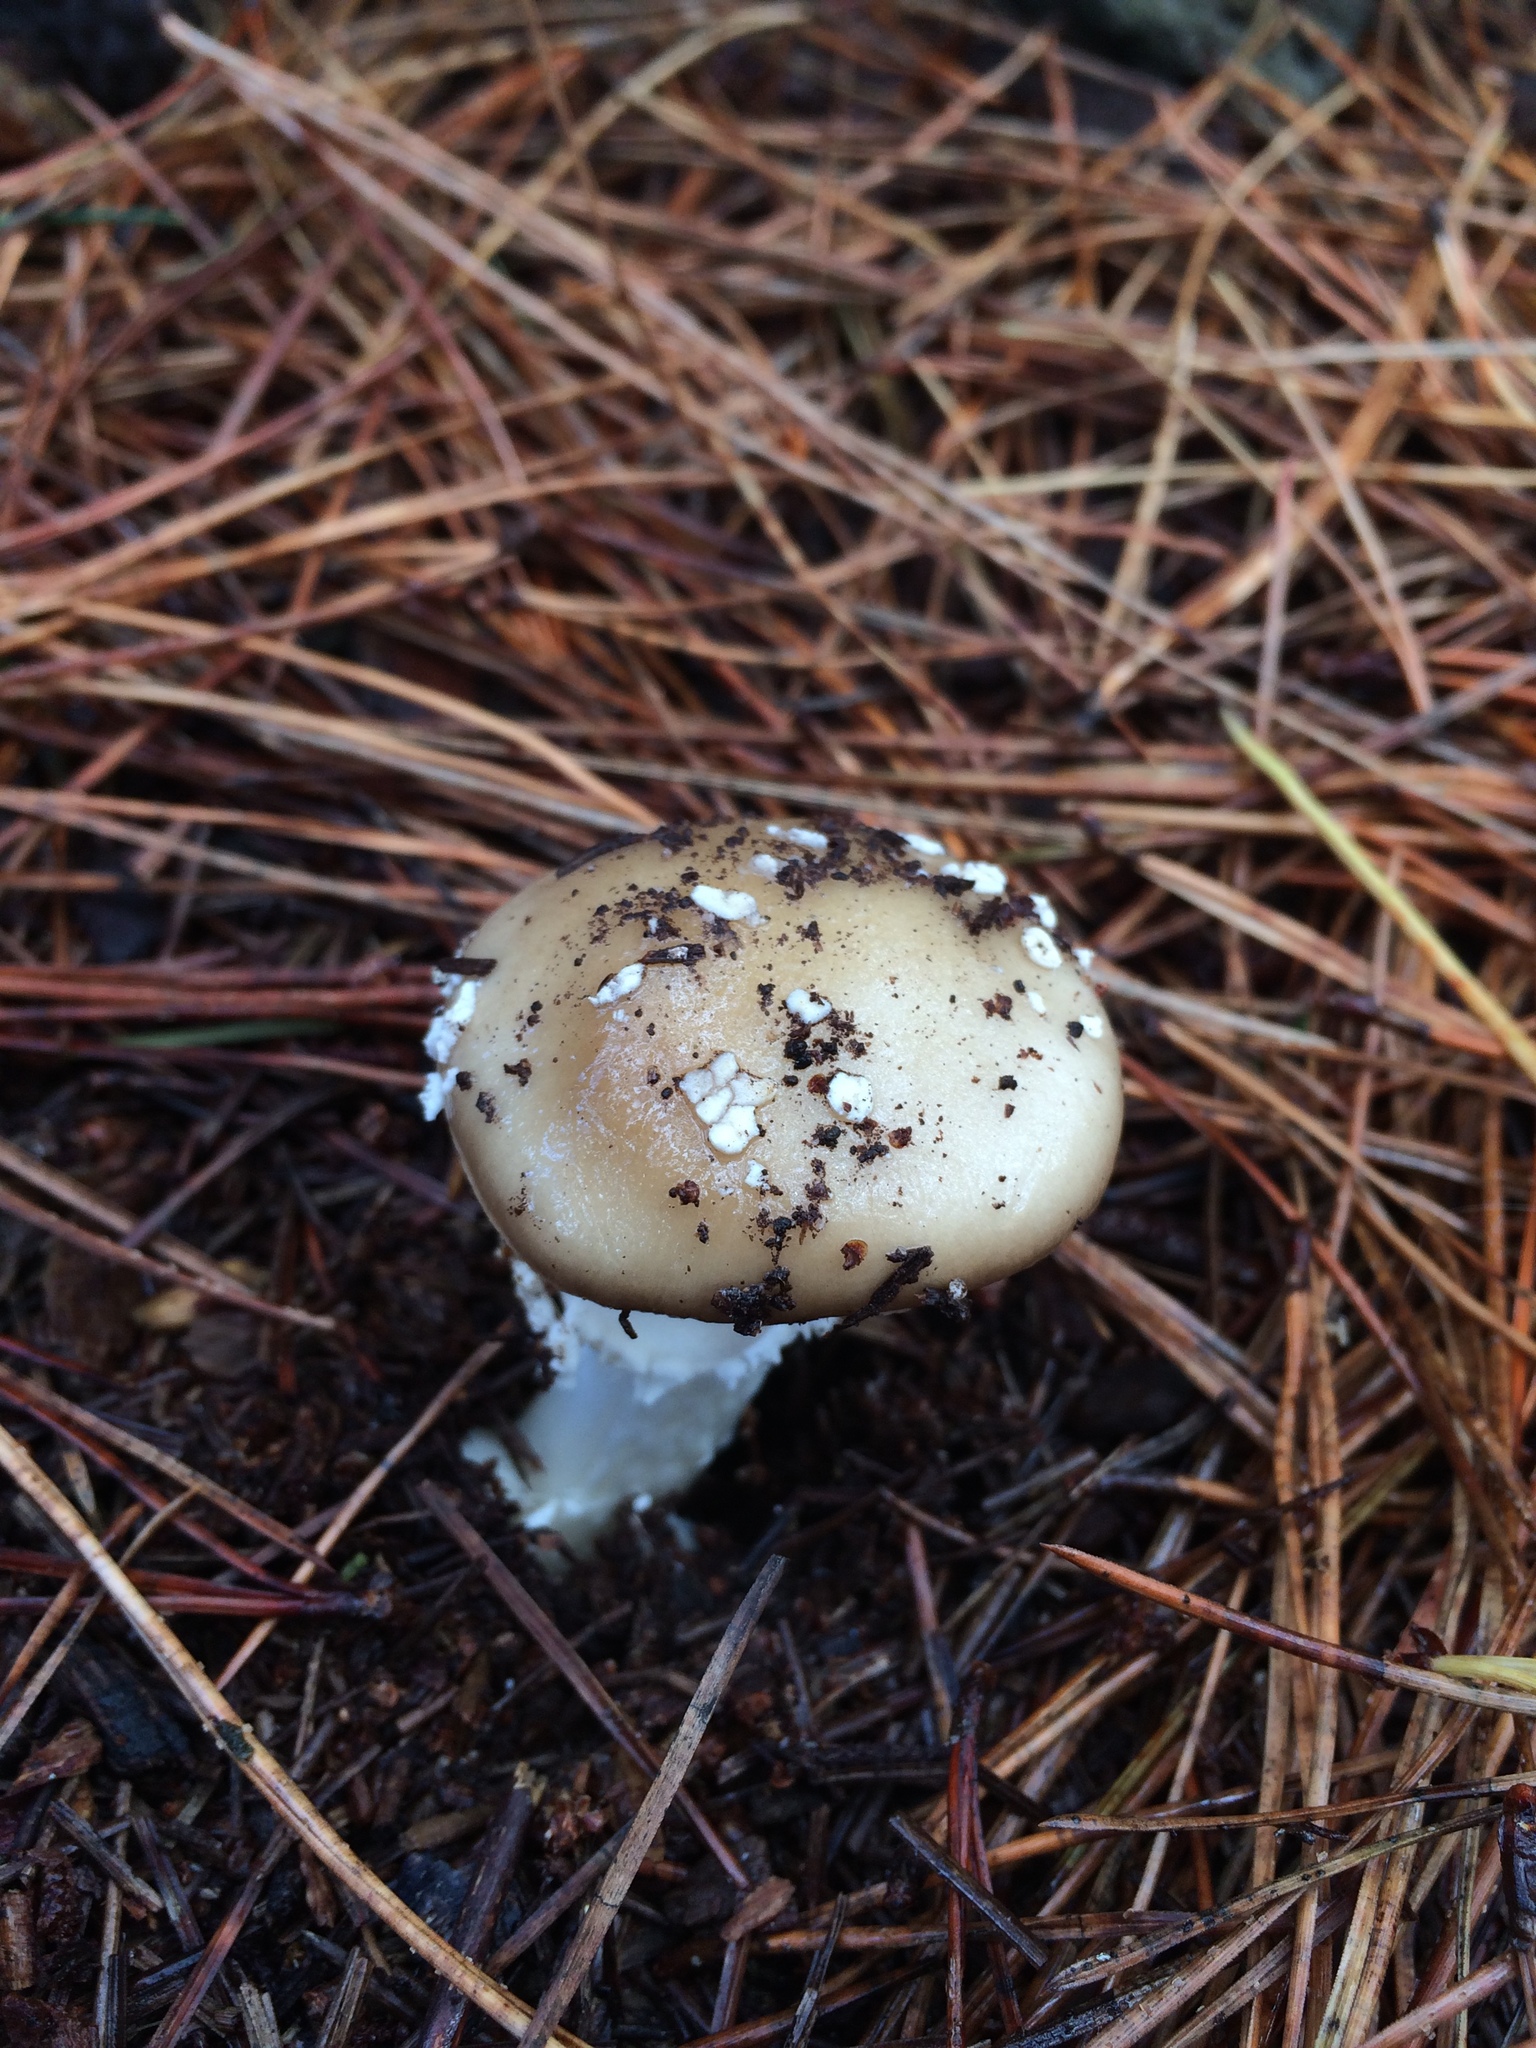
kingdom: Fungi
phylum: Basidiomycota
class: Agaricomycetes
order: Agaricales
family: Amanitaceae
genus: Amanita
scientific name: Amanita pantherina
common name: Panthercap
